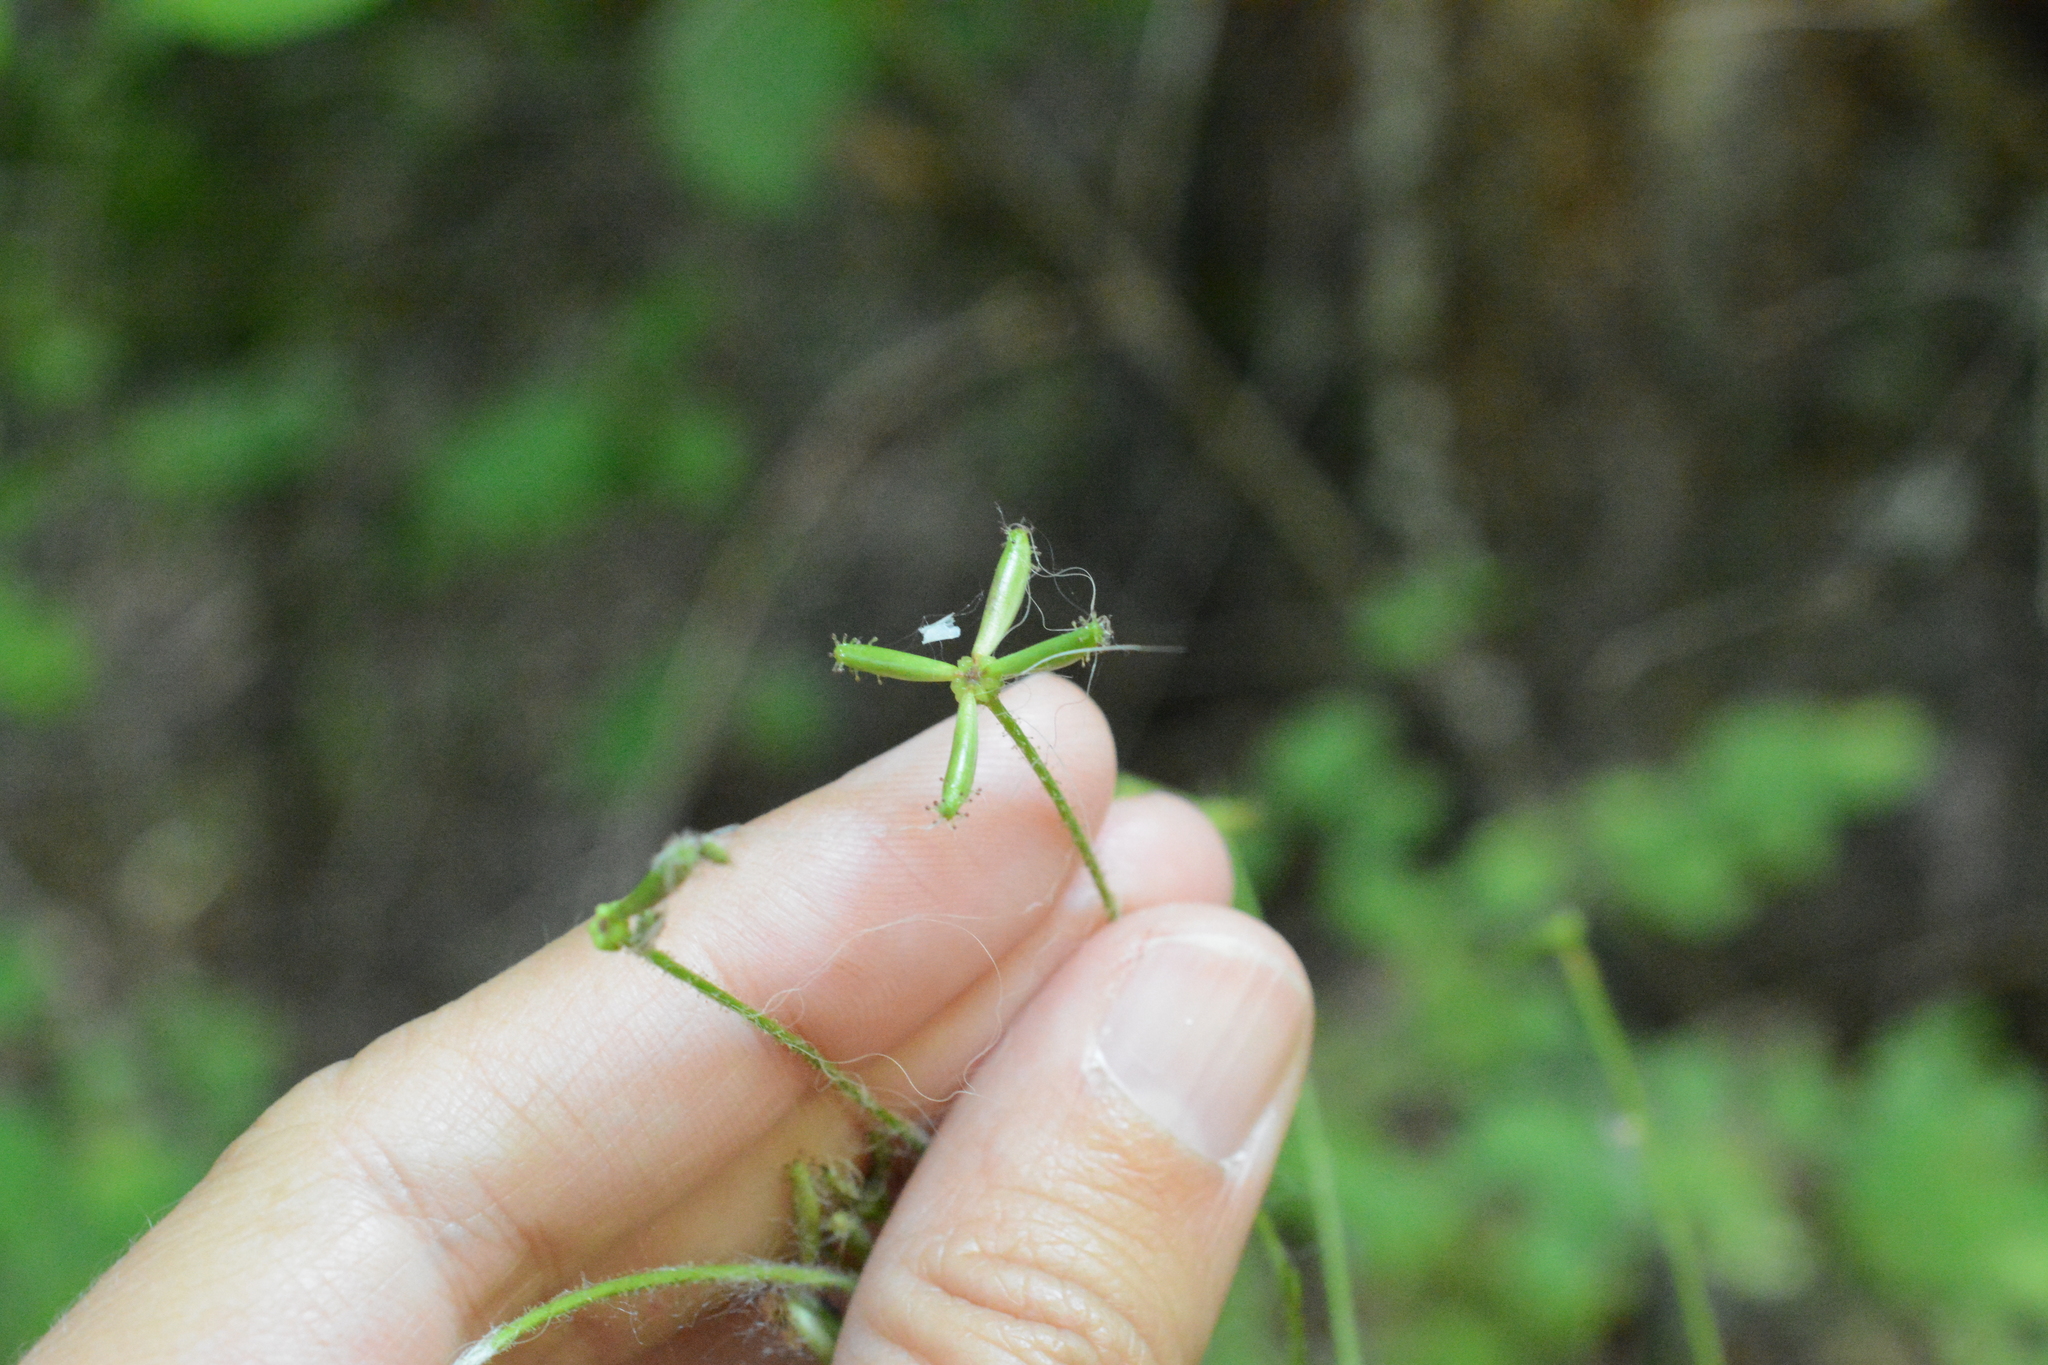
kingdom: Plantae
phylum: Tracheophyta
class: Magnoliopsida
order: Asterales
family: Asteraceae
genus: Adenocaulon
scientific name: Adenocaulon bicolor
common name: Trailplant
